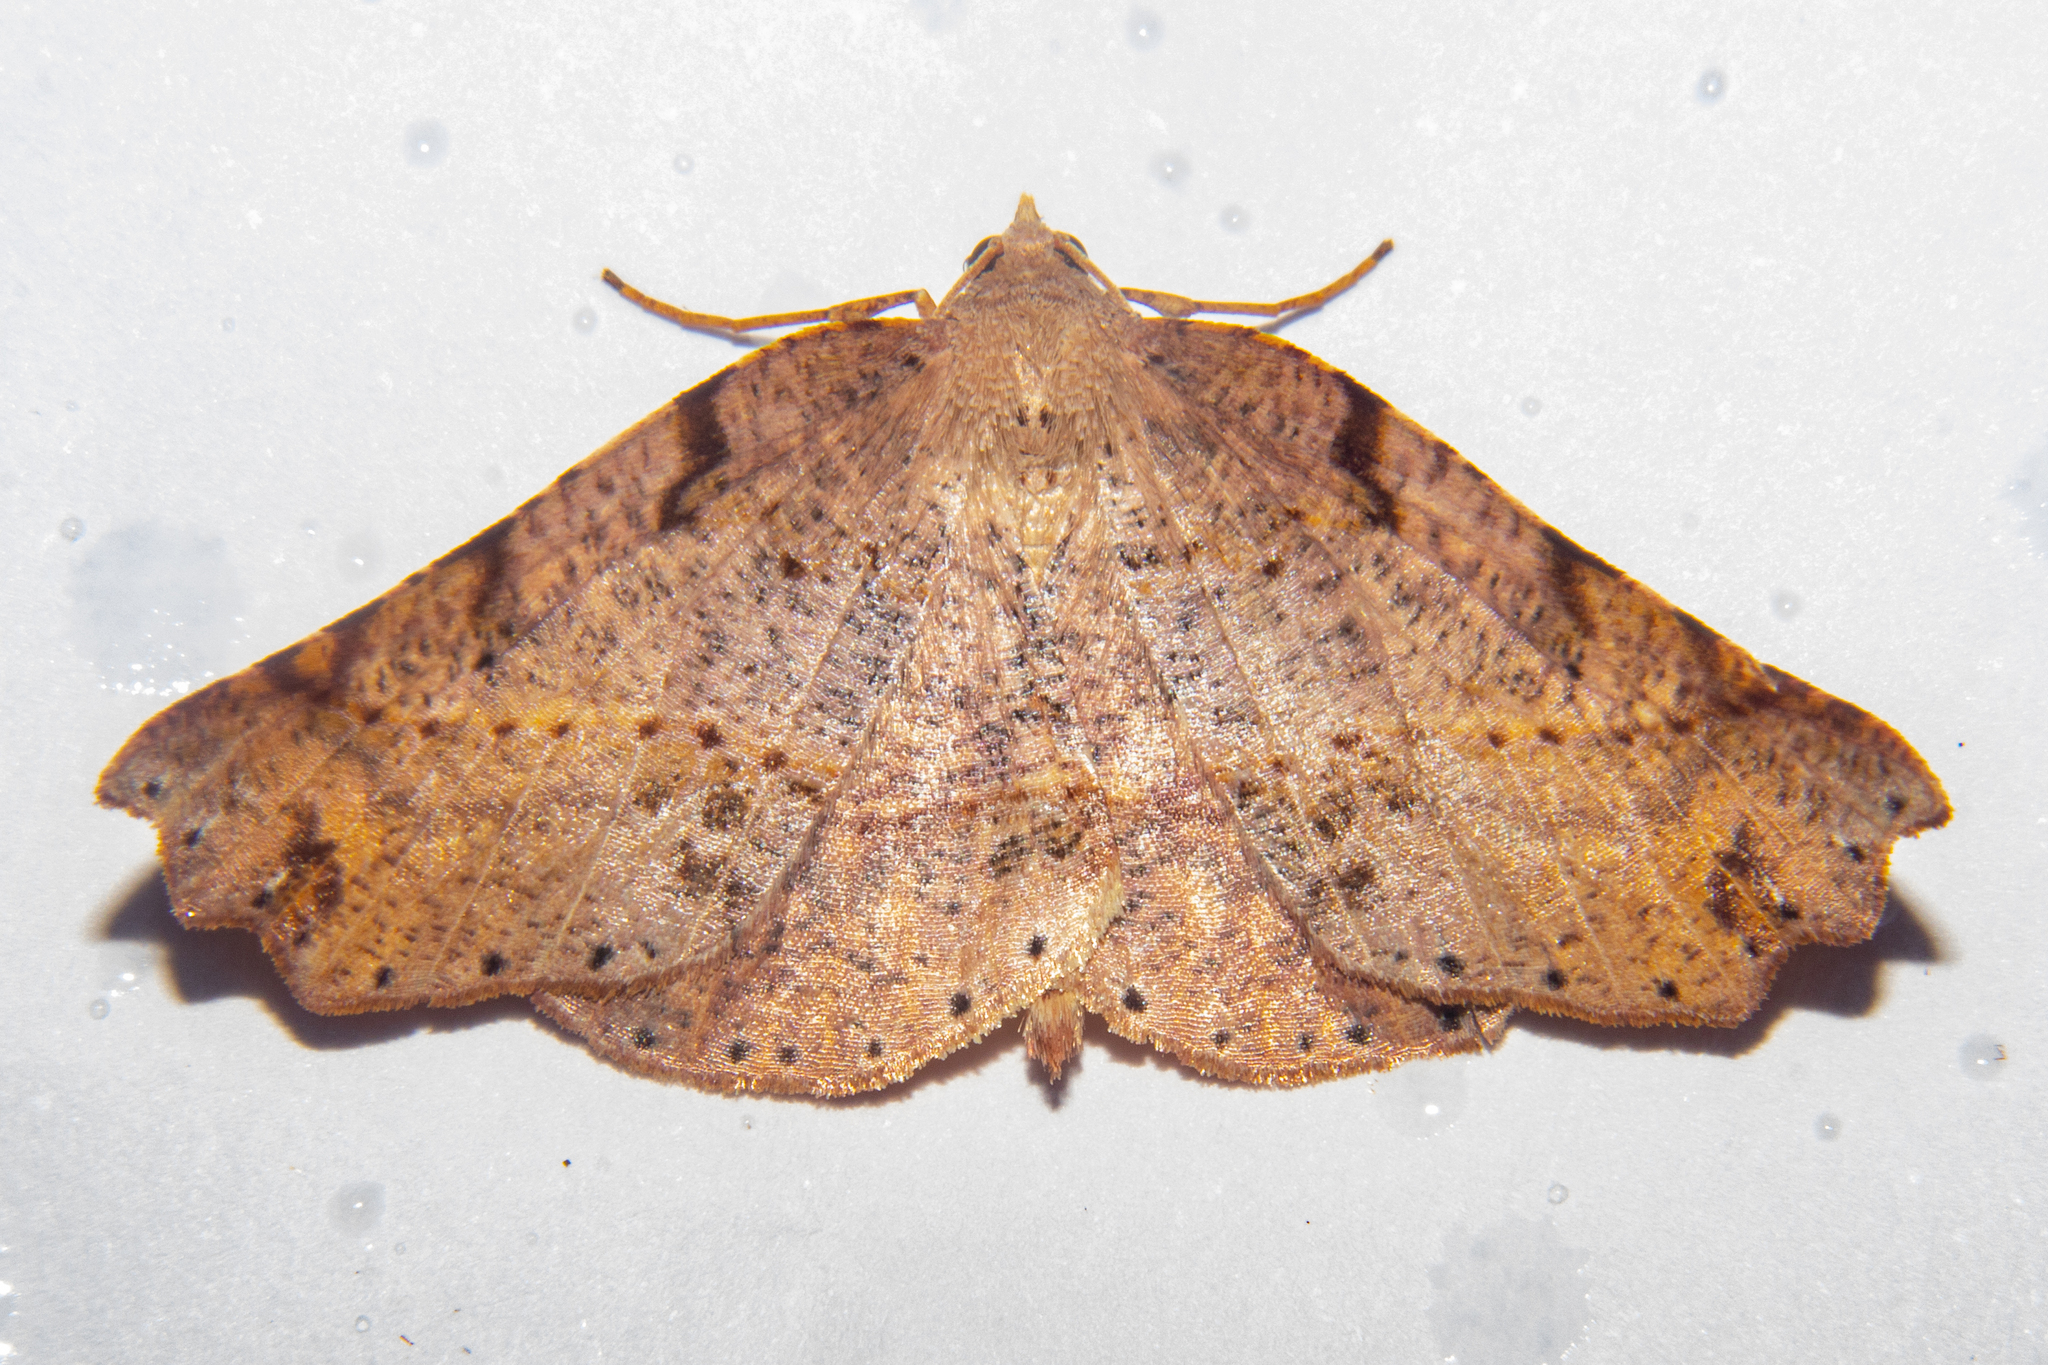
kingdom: Animalia
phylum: Arthropoda
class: Insecta
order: Lepidoptera
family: Geometridae
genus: Ischalis
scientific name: Ischalis gallaria
